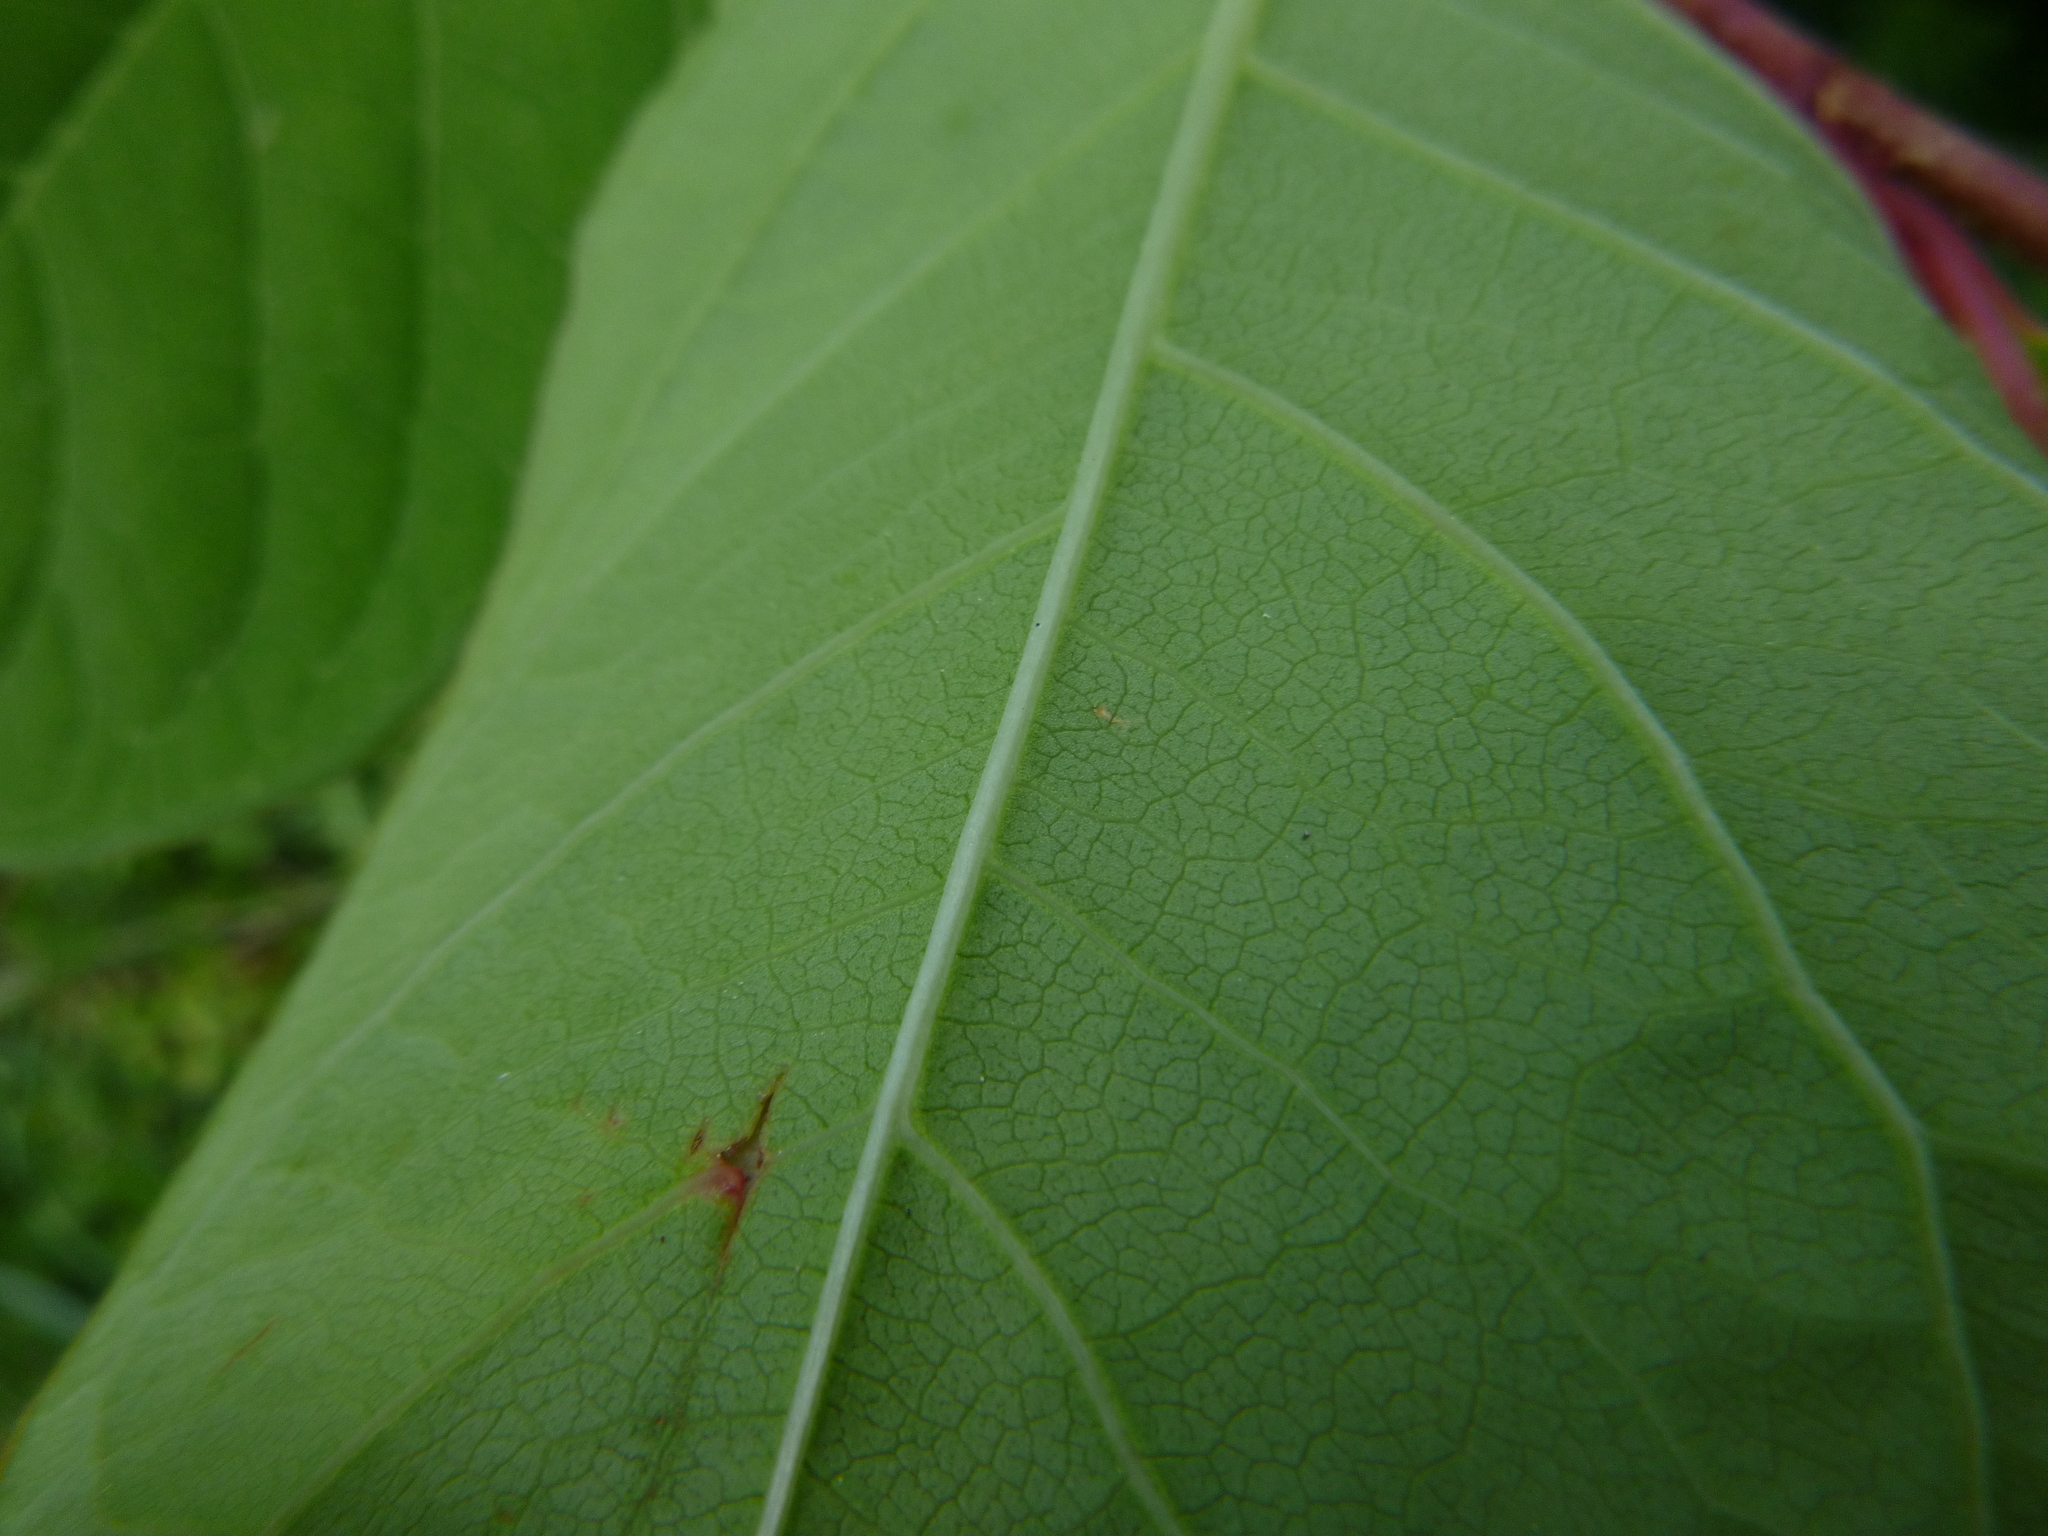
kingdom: Plantae
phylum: Tracheophyta
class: Magnoliopsida
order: Caryophyllales
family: Polygonaceae
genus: Reynoutria
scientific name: Reynoutria japonica
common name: Japanese knotweed
